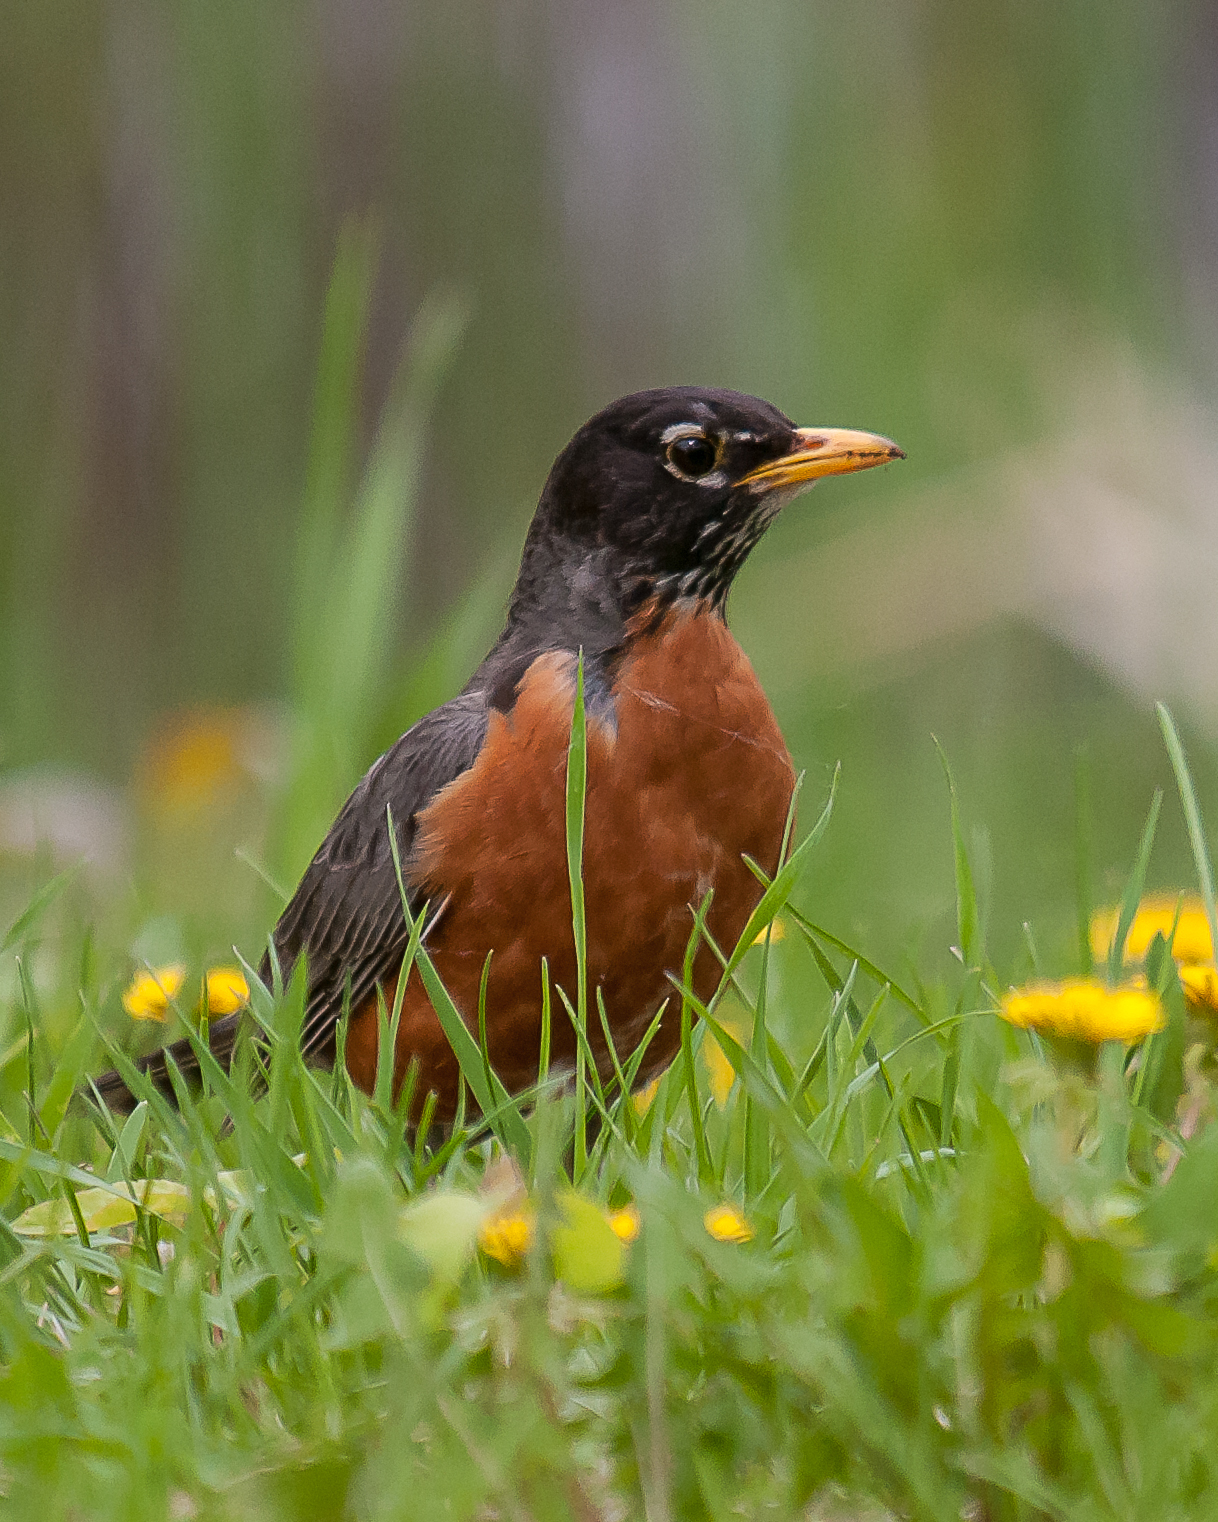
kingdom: Animalia
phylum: Chordata
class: Aves
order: Passeriformes
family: Turdidae
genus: Turdus
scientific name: Turdus migratorius
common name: American robin
